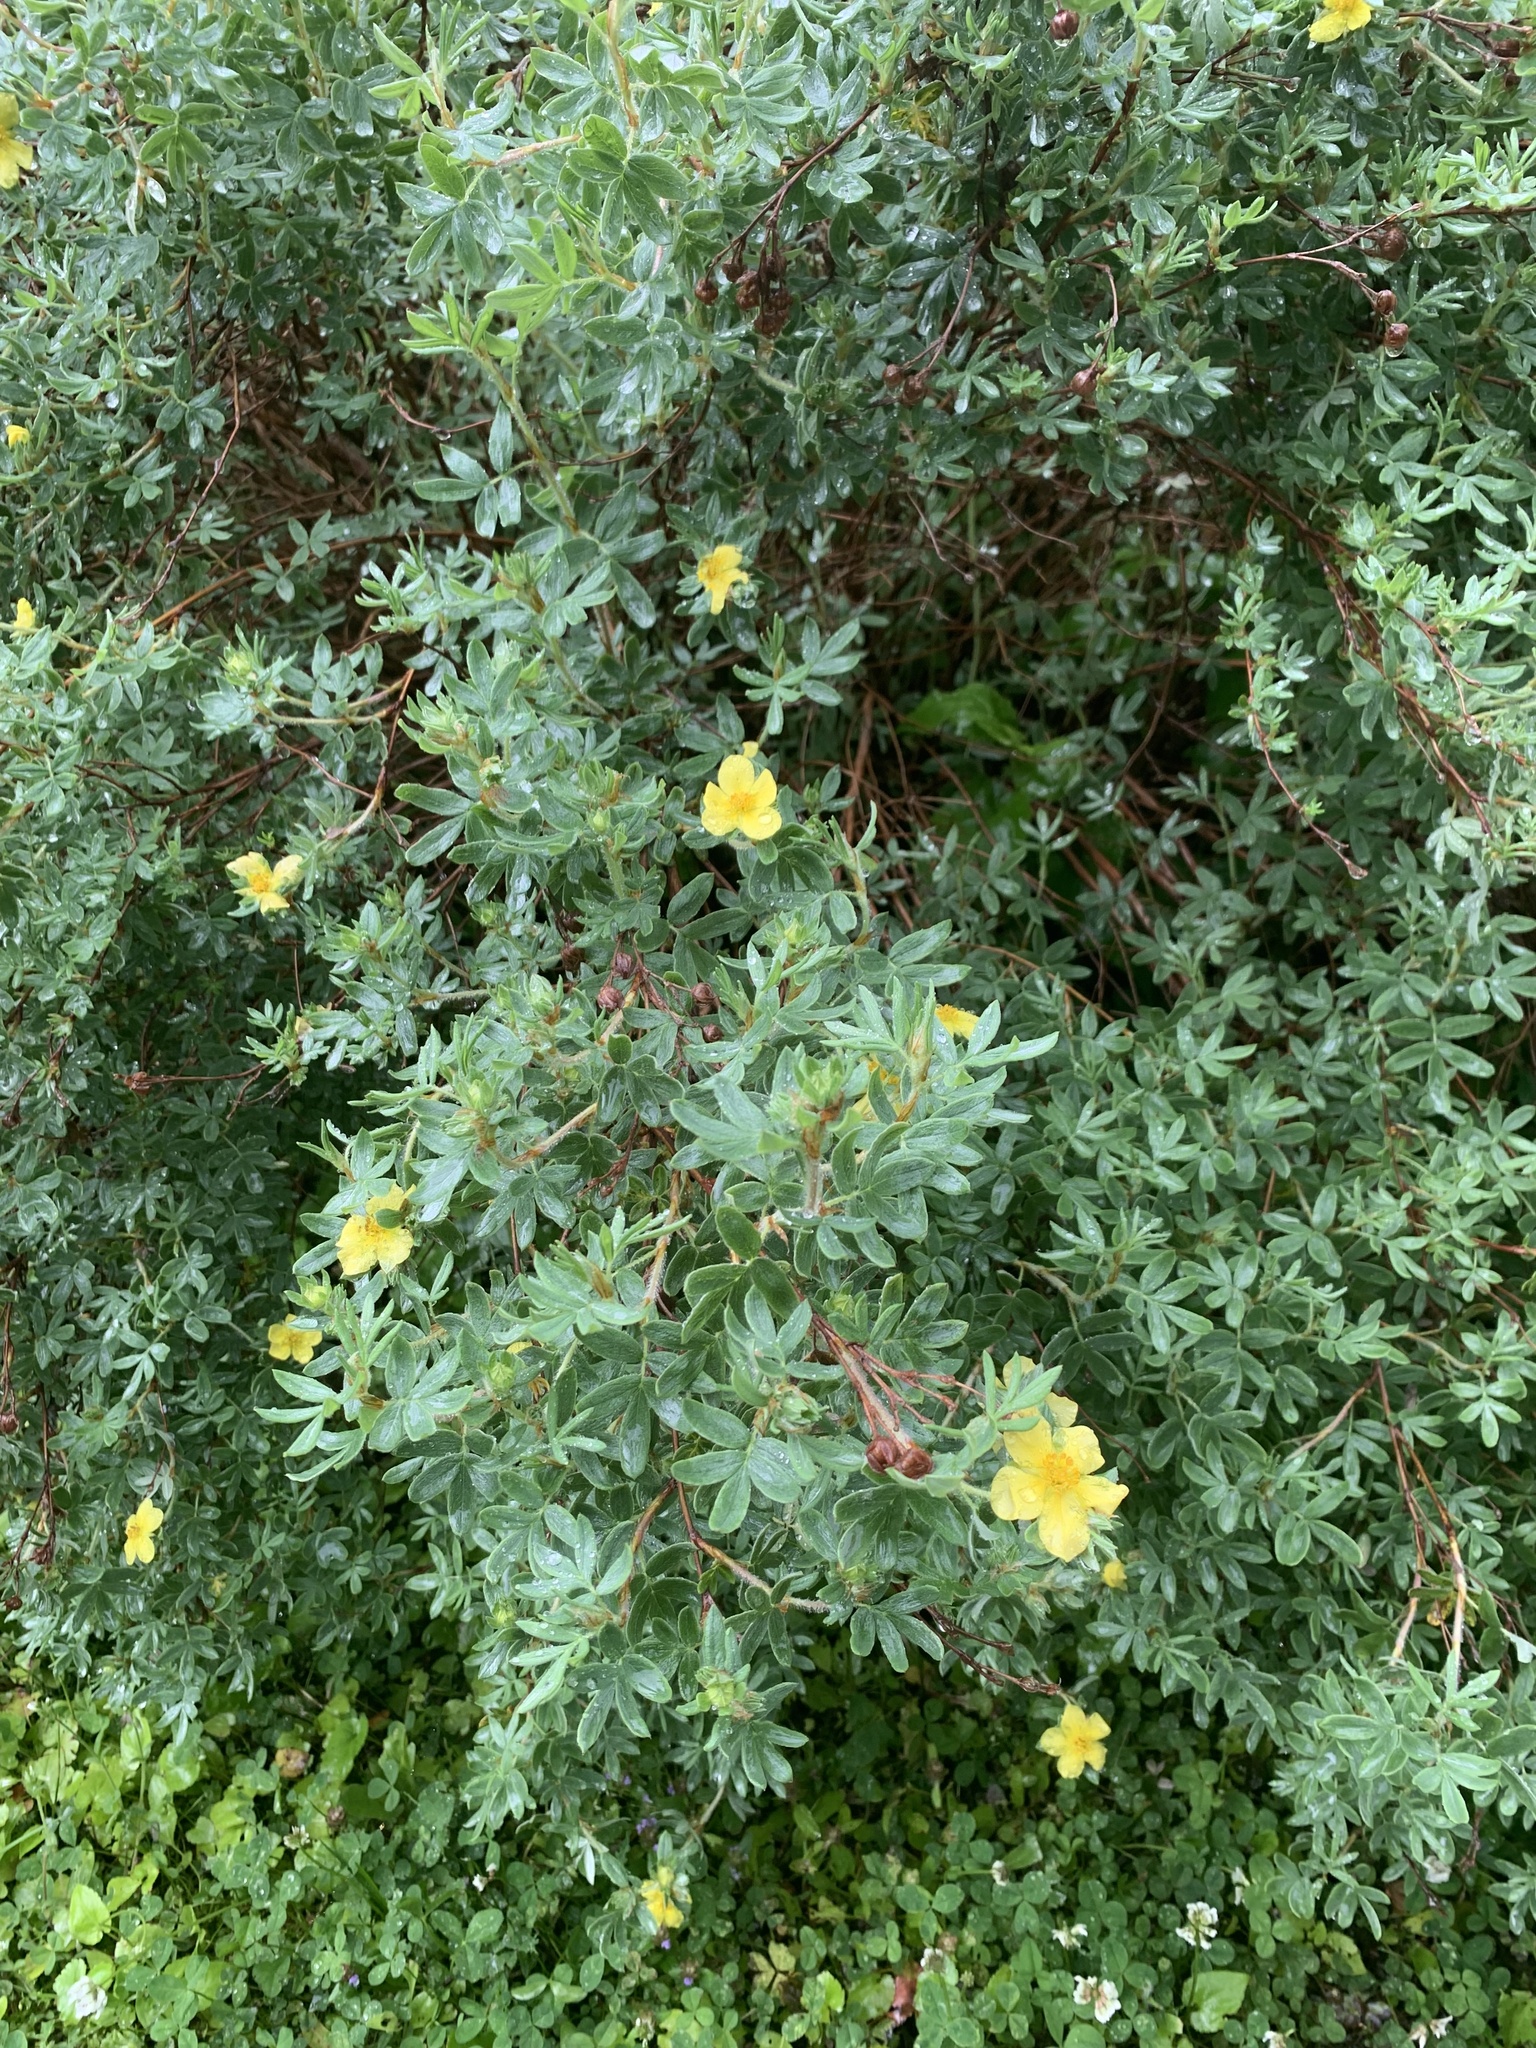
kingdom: Plantae
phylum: Tracheophyta
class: Magnoliopsida
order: Rosales
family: Rosaceae
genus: Dasiphora
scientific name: Dasiphora fruticosa
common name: Shrubby cinquefoil
